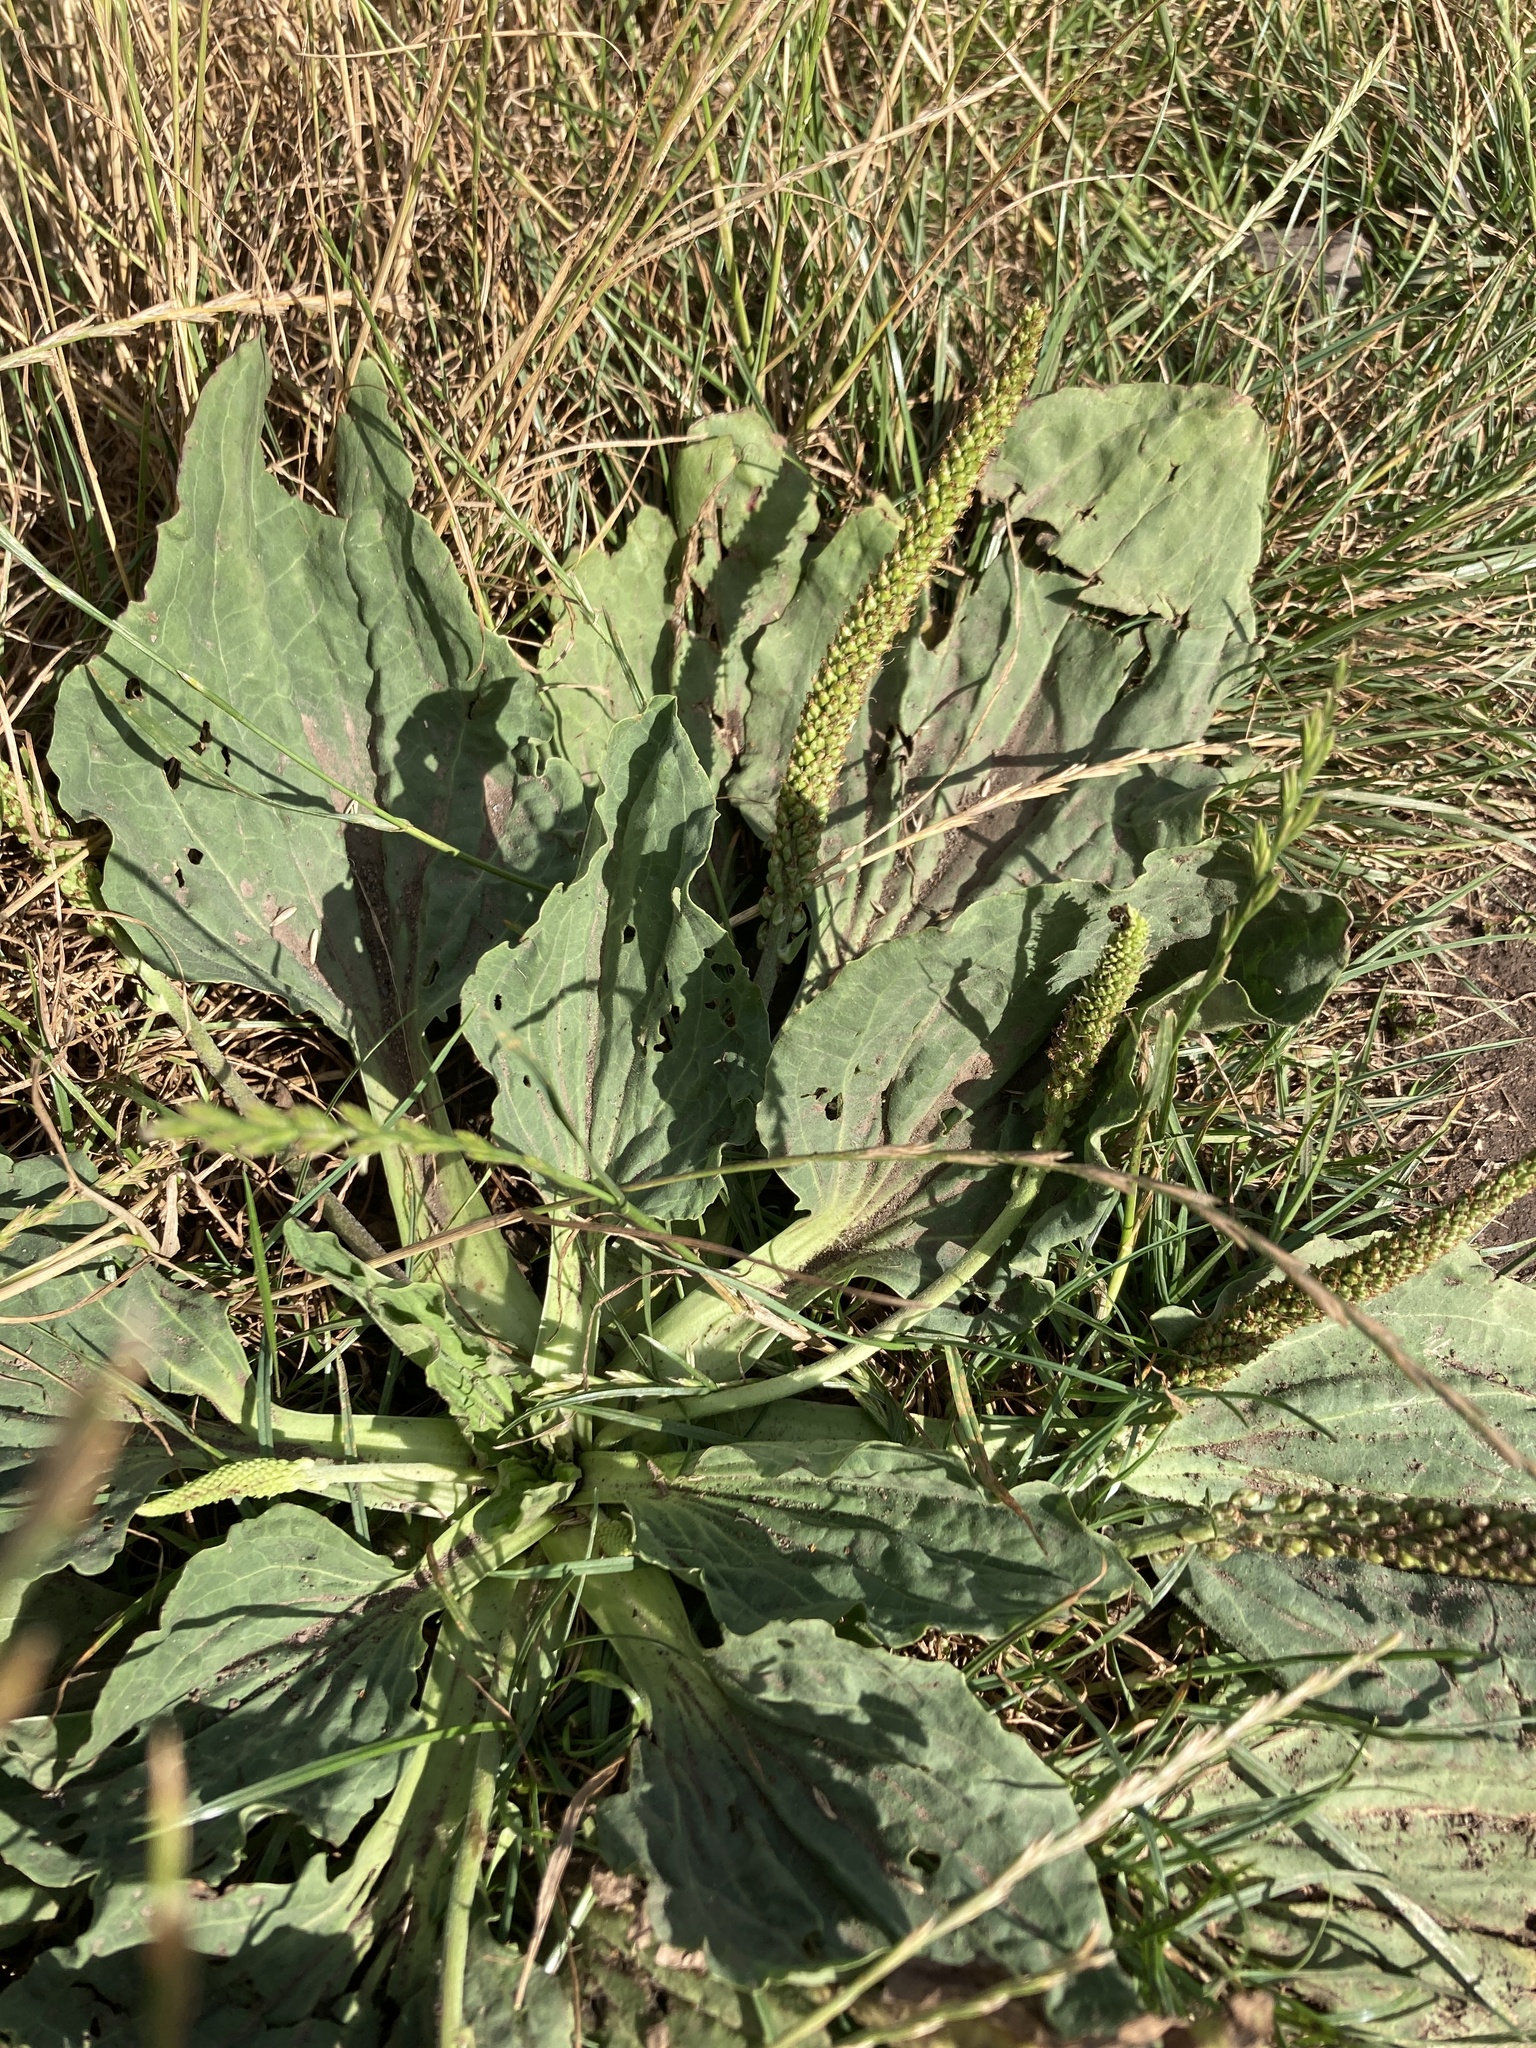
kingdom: Plantae
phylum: Tracheophyta
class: Magnoliopsida
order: Lamiales
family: Plantaginaceae
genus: Plantago
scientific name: Plantago major
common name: Common plantain
